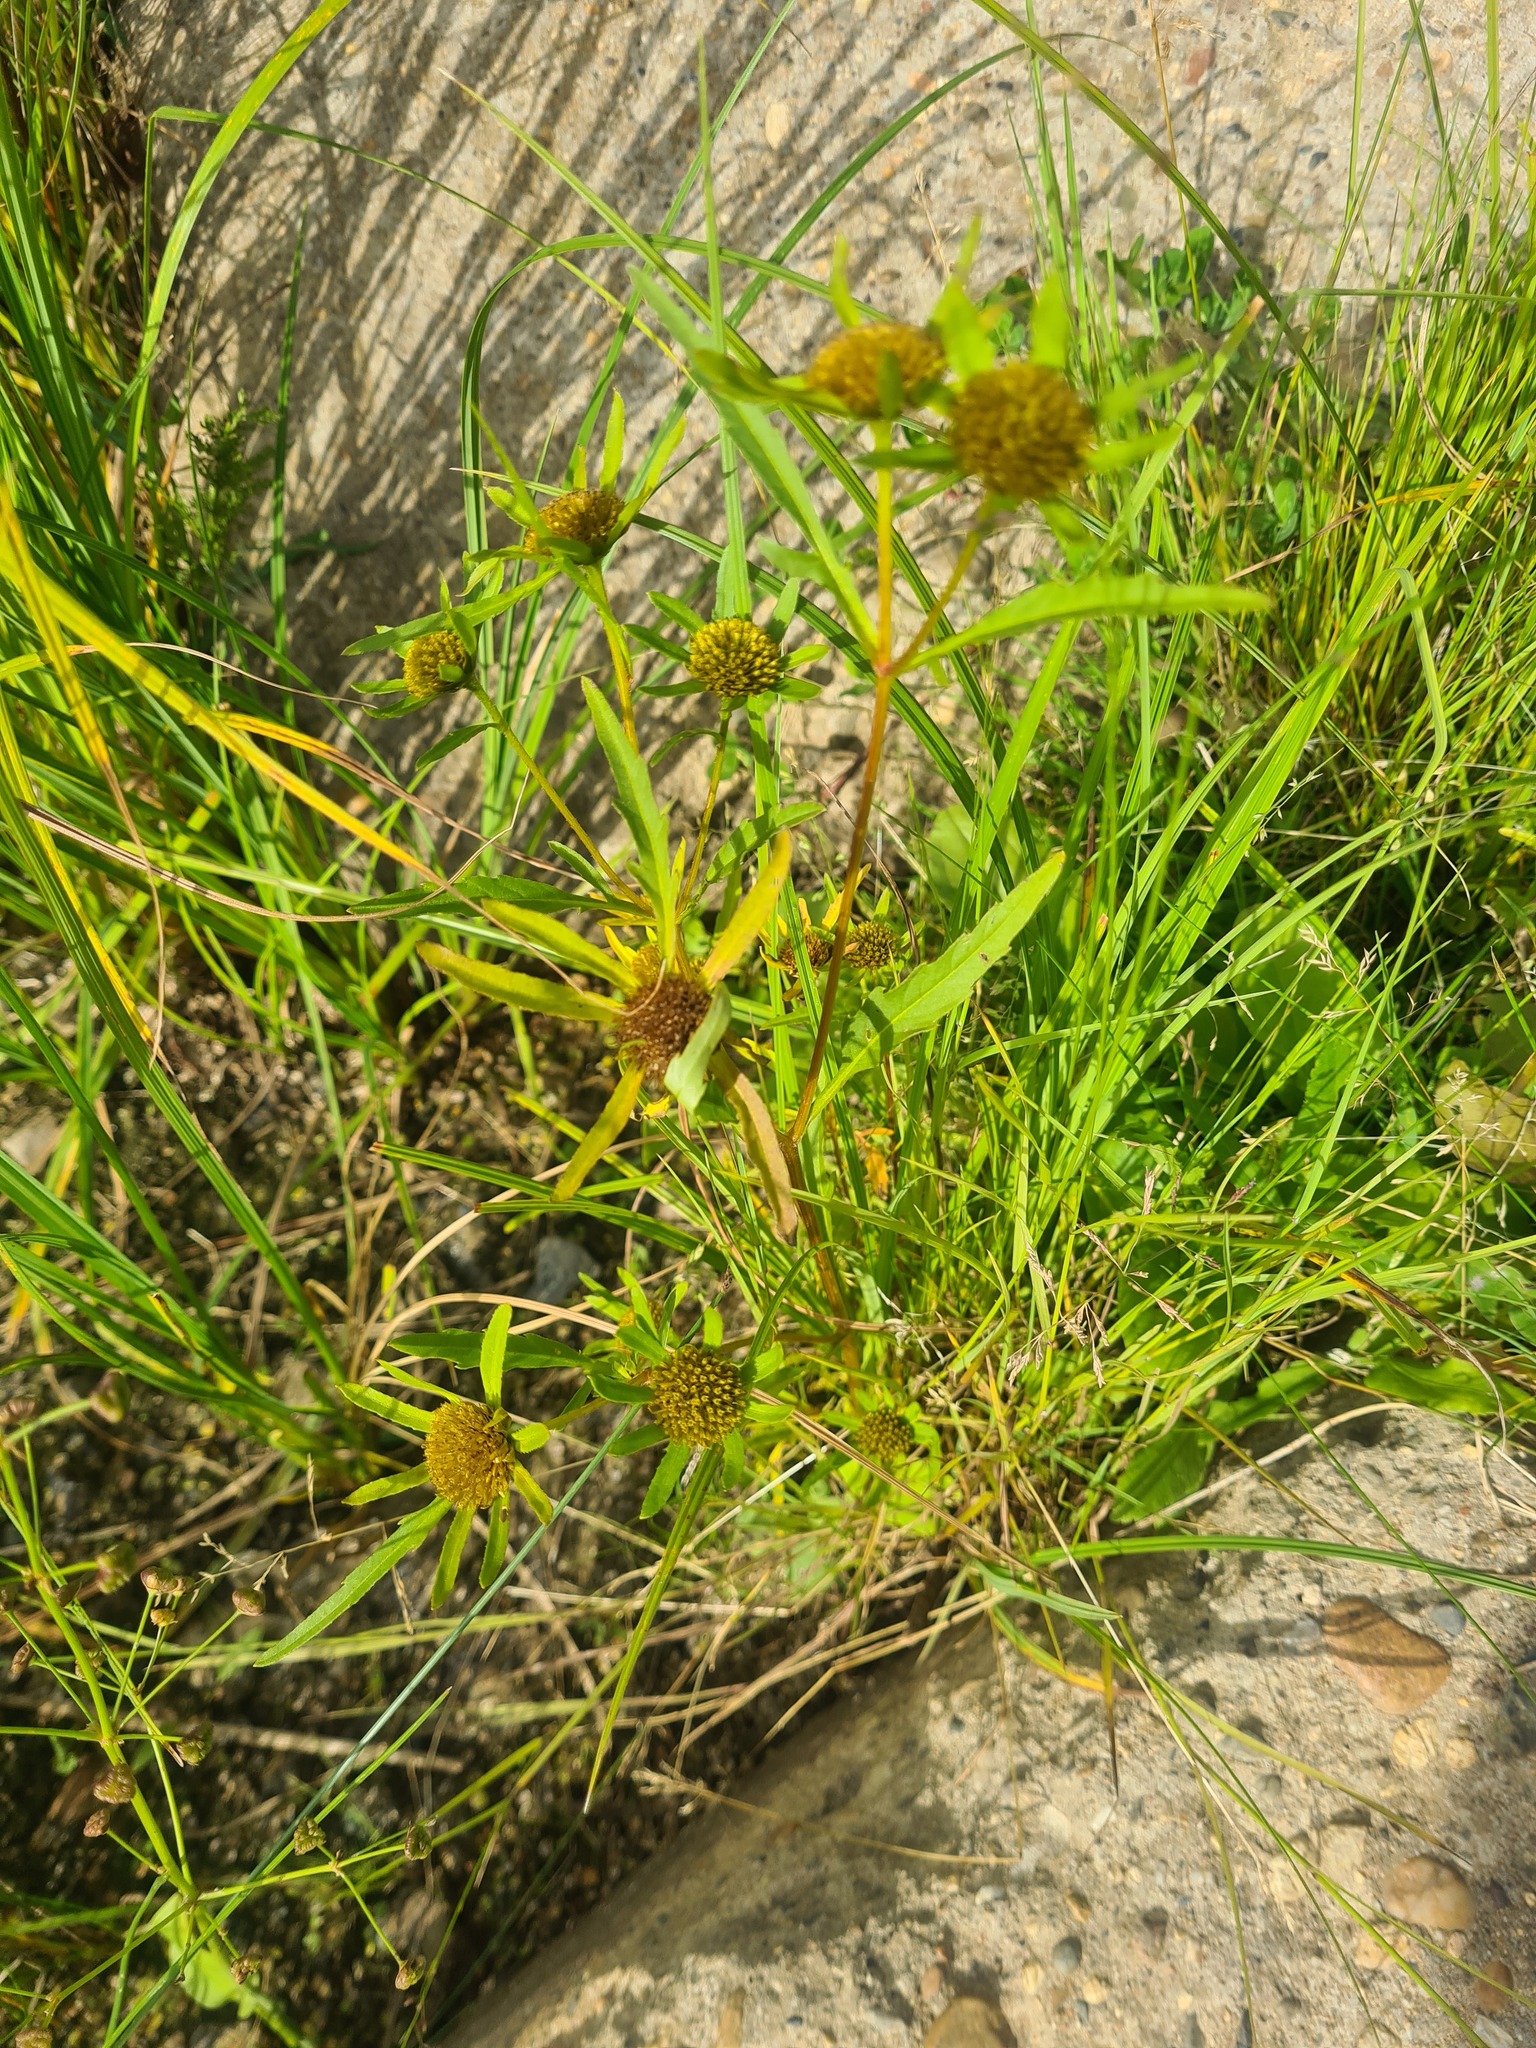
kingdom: Plantae
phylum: Tracheophyta
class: Magnoliopsida
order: Asterales
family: Asteraceae
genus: Bidens
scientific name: Bidens radiata
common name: Radiating bur-marigold
